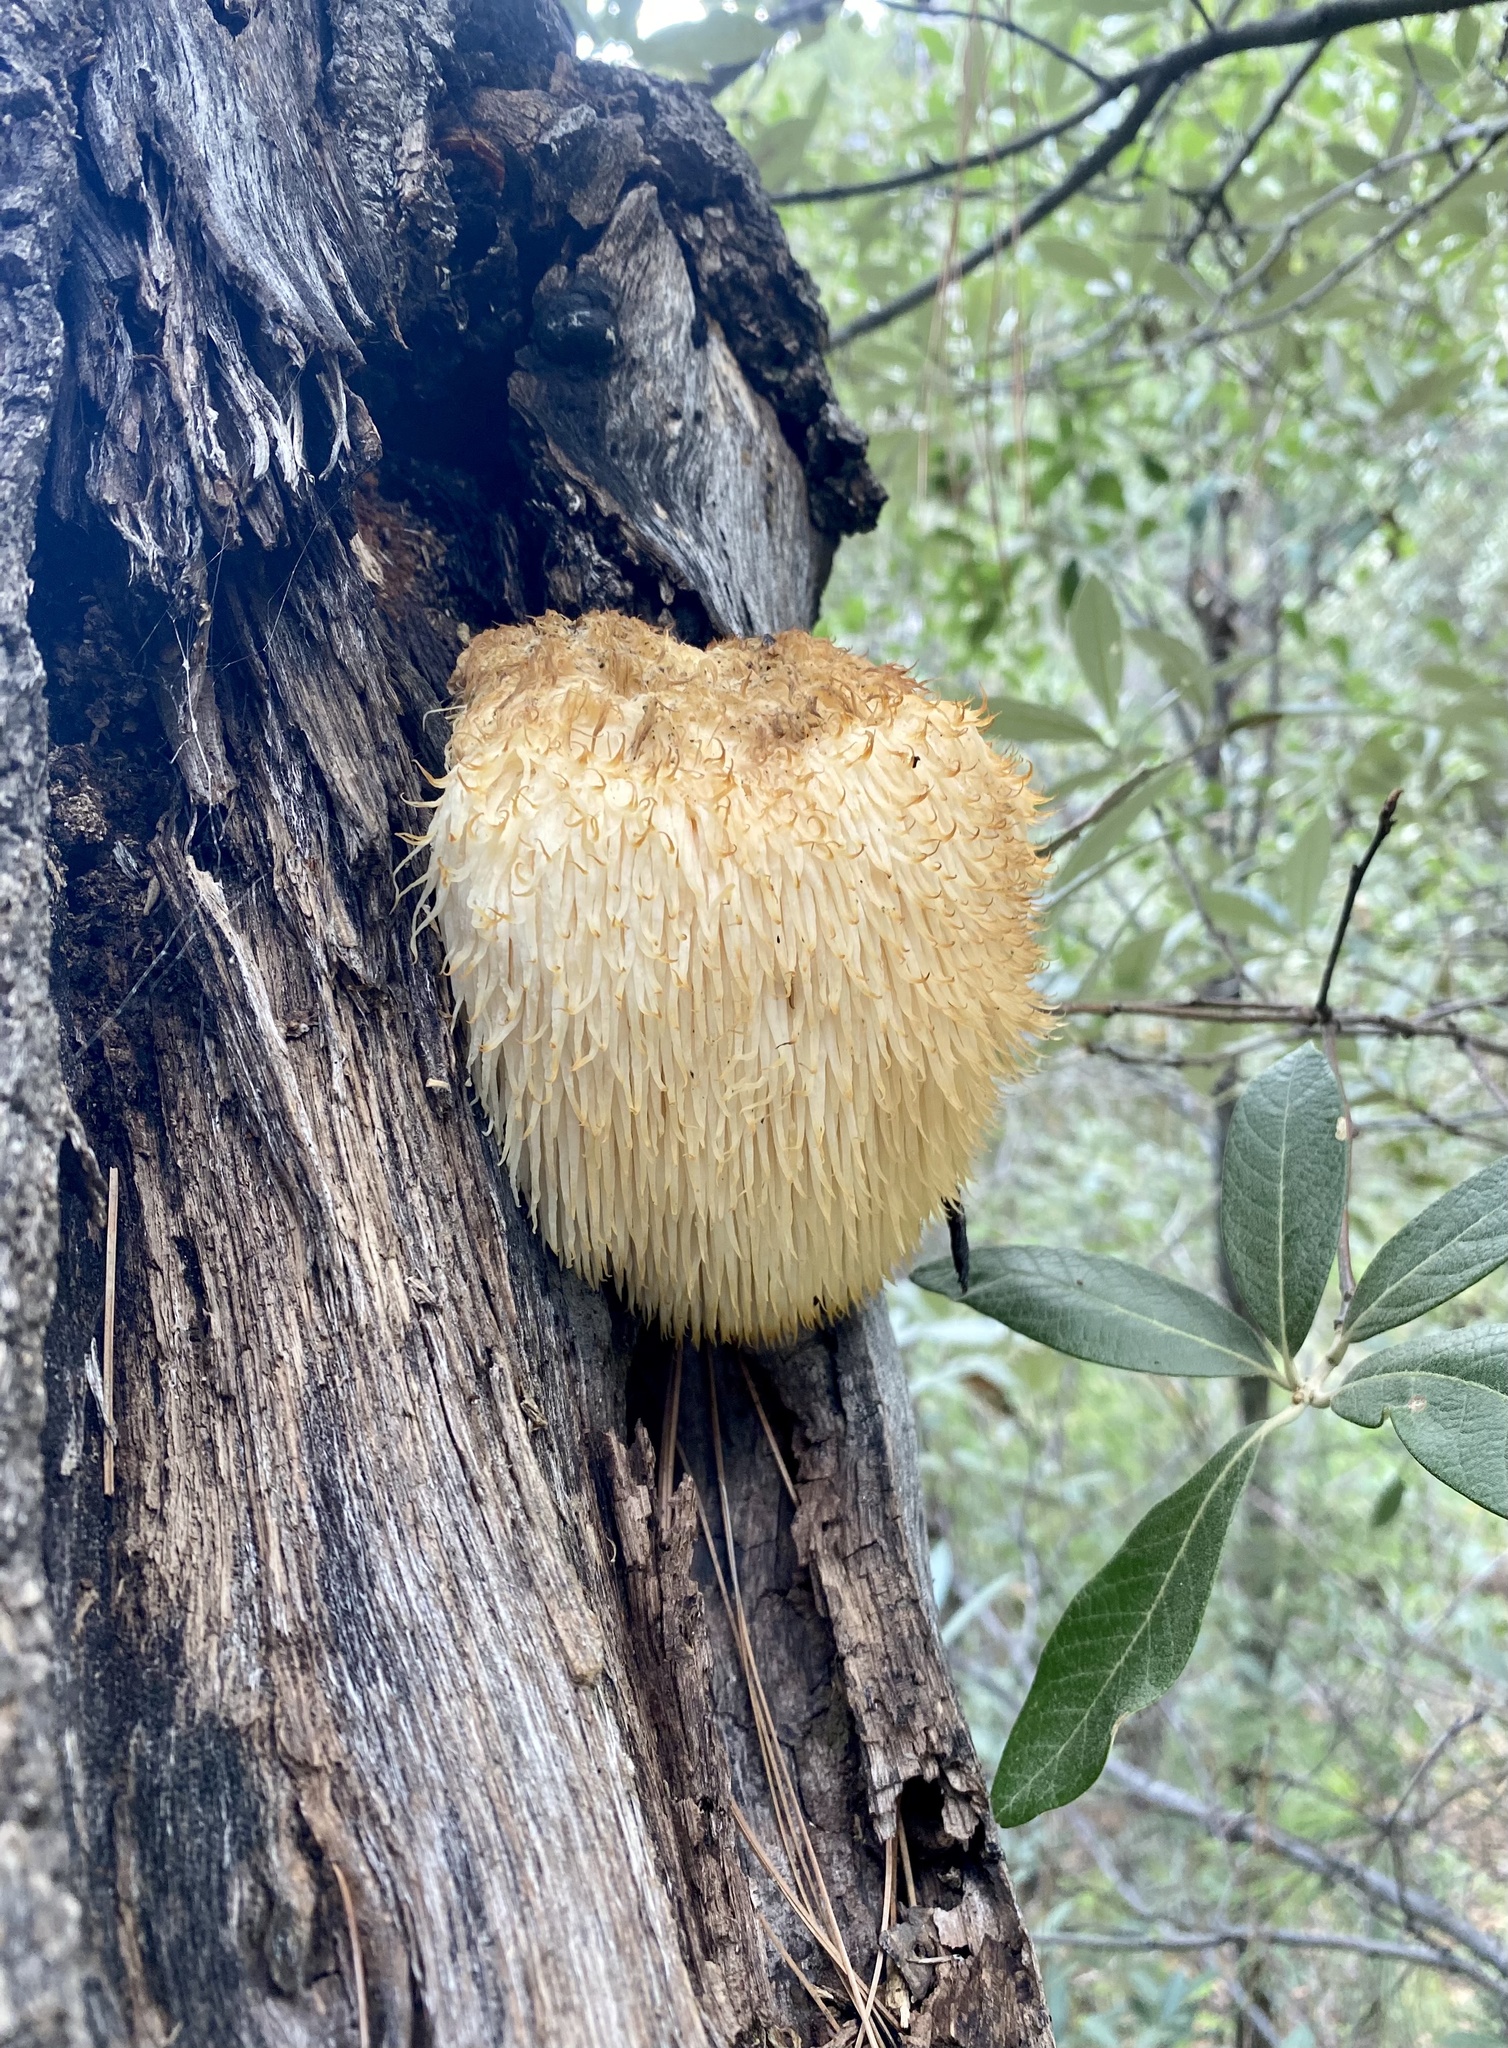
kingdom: Fungi
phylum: Basidiomycota
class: Agaricomycetes
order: Russulales
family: Hericiaceae
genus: Hericium
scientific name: Hericium erinaceus
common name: Bearded tooth
